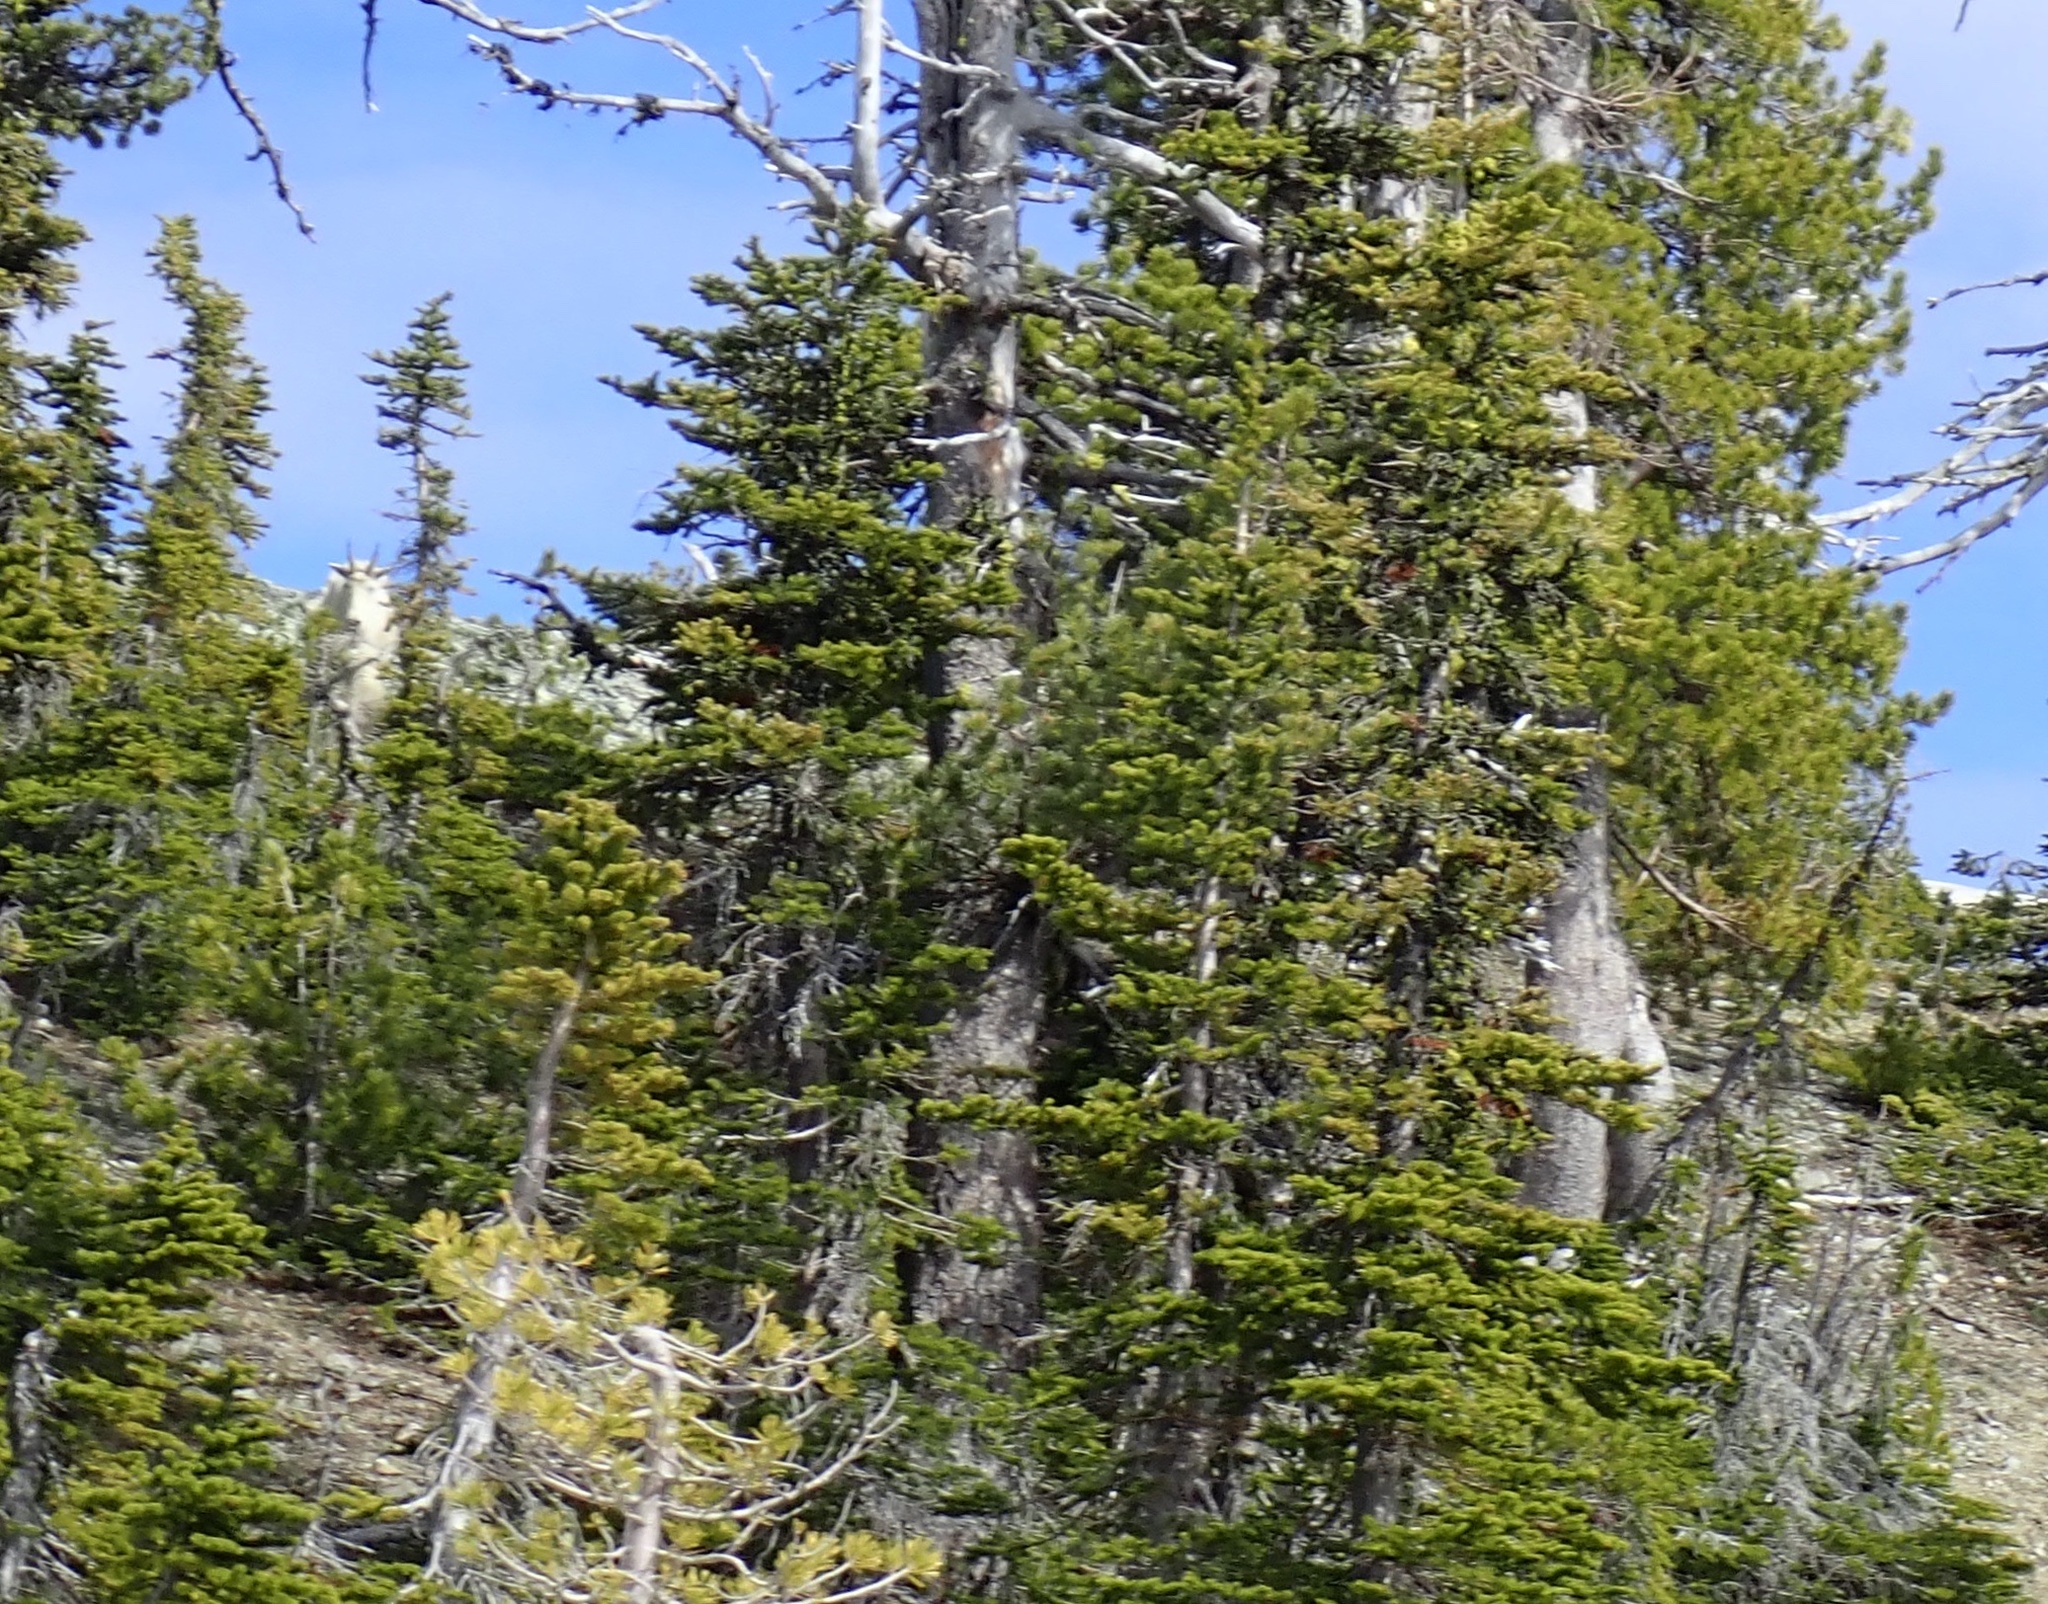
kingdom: Animalia
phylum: Chordata
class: Mammalia
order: Artiodactyla
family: Bovidae
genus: Oreamnos
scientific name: Oreamnos americanus
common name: Mountain goat
